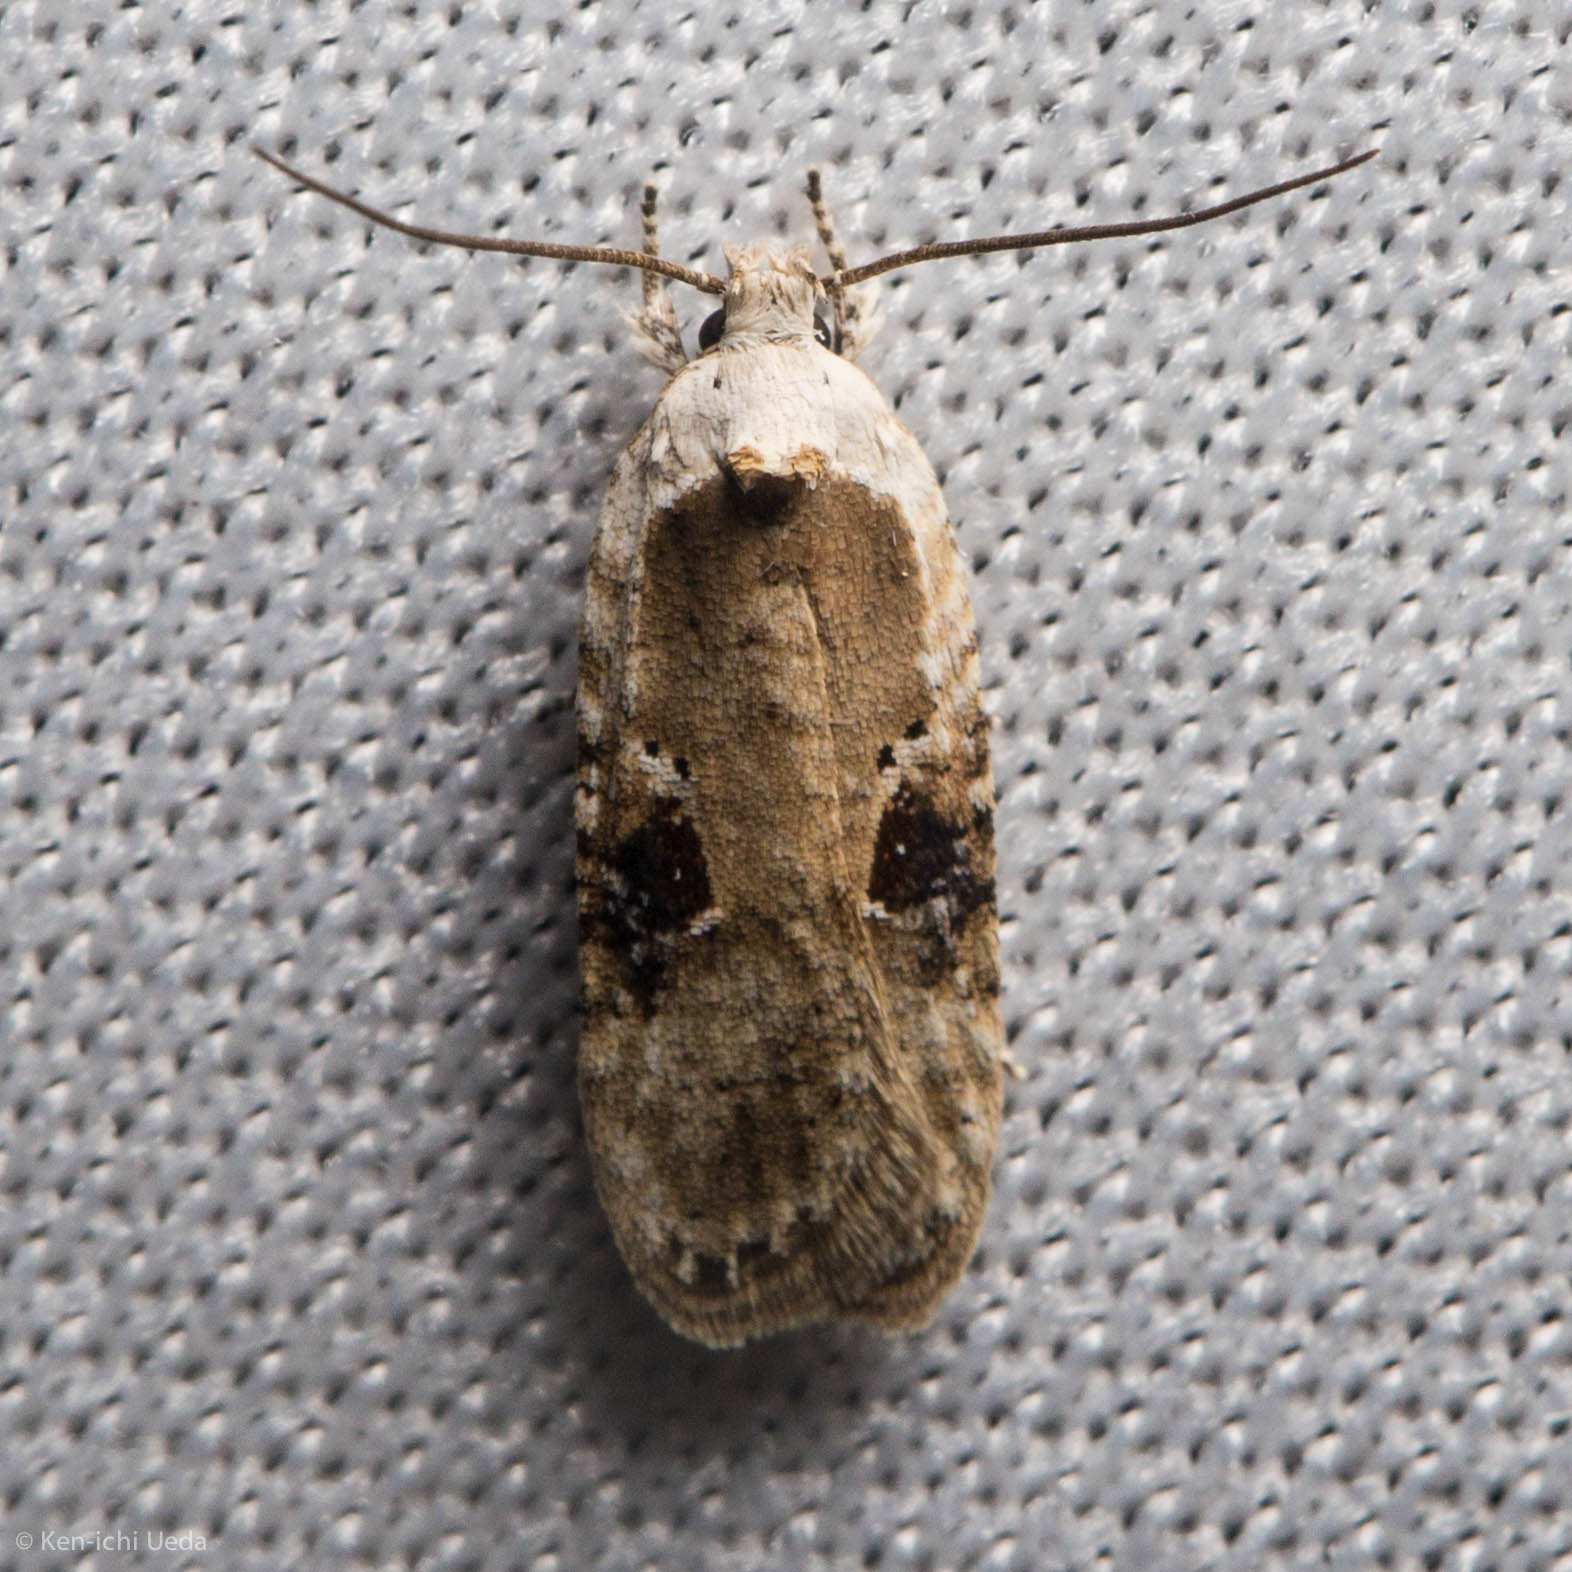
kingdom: Animalia
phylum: Arthropoda
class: Insecta
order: Lepidoptera
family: Depressariidae
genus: Agonopterix
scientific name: Agonopterix alstroemeriana
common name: Moth
